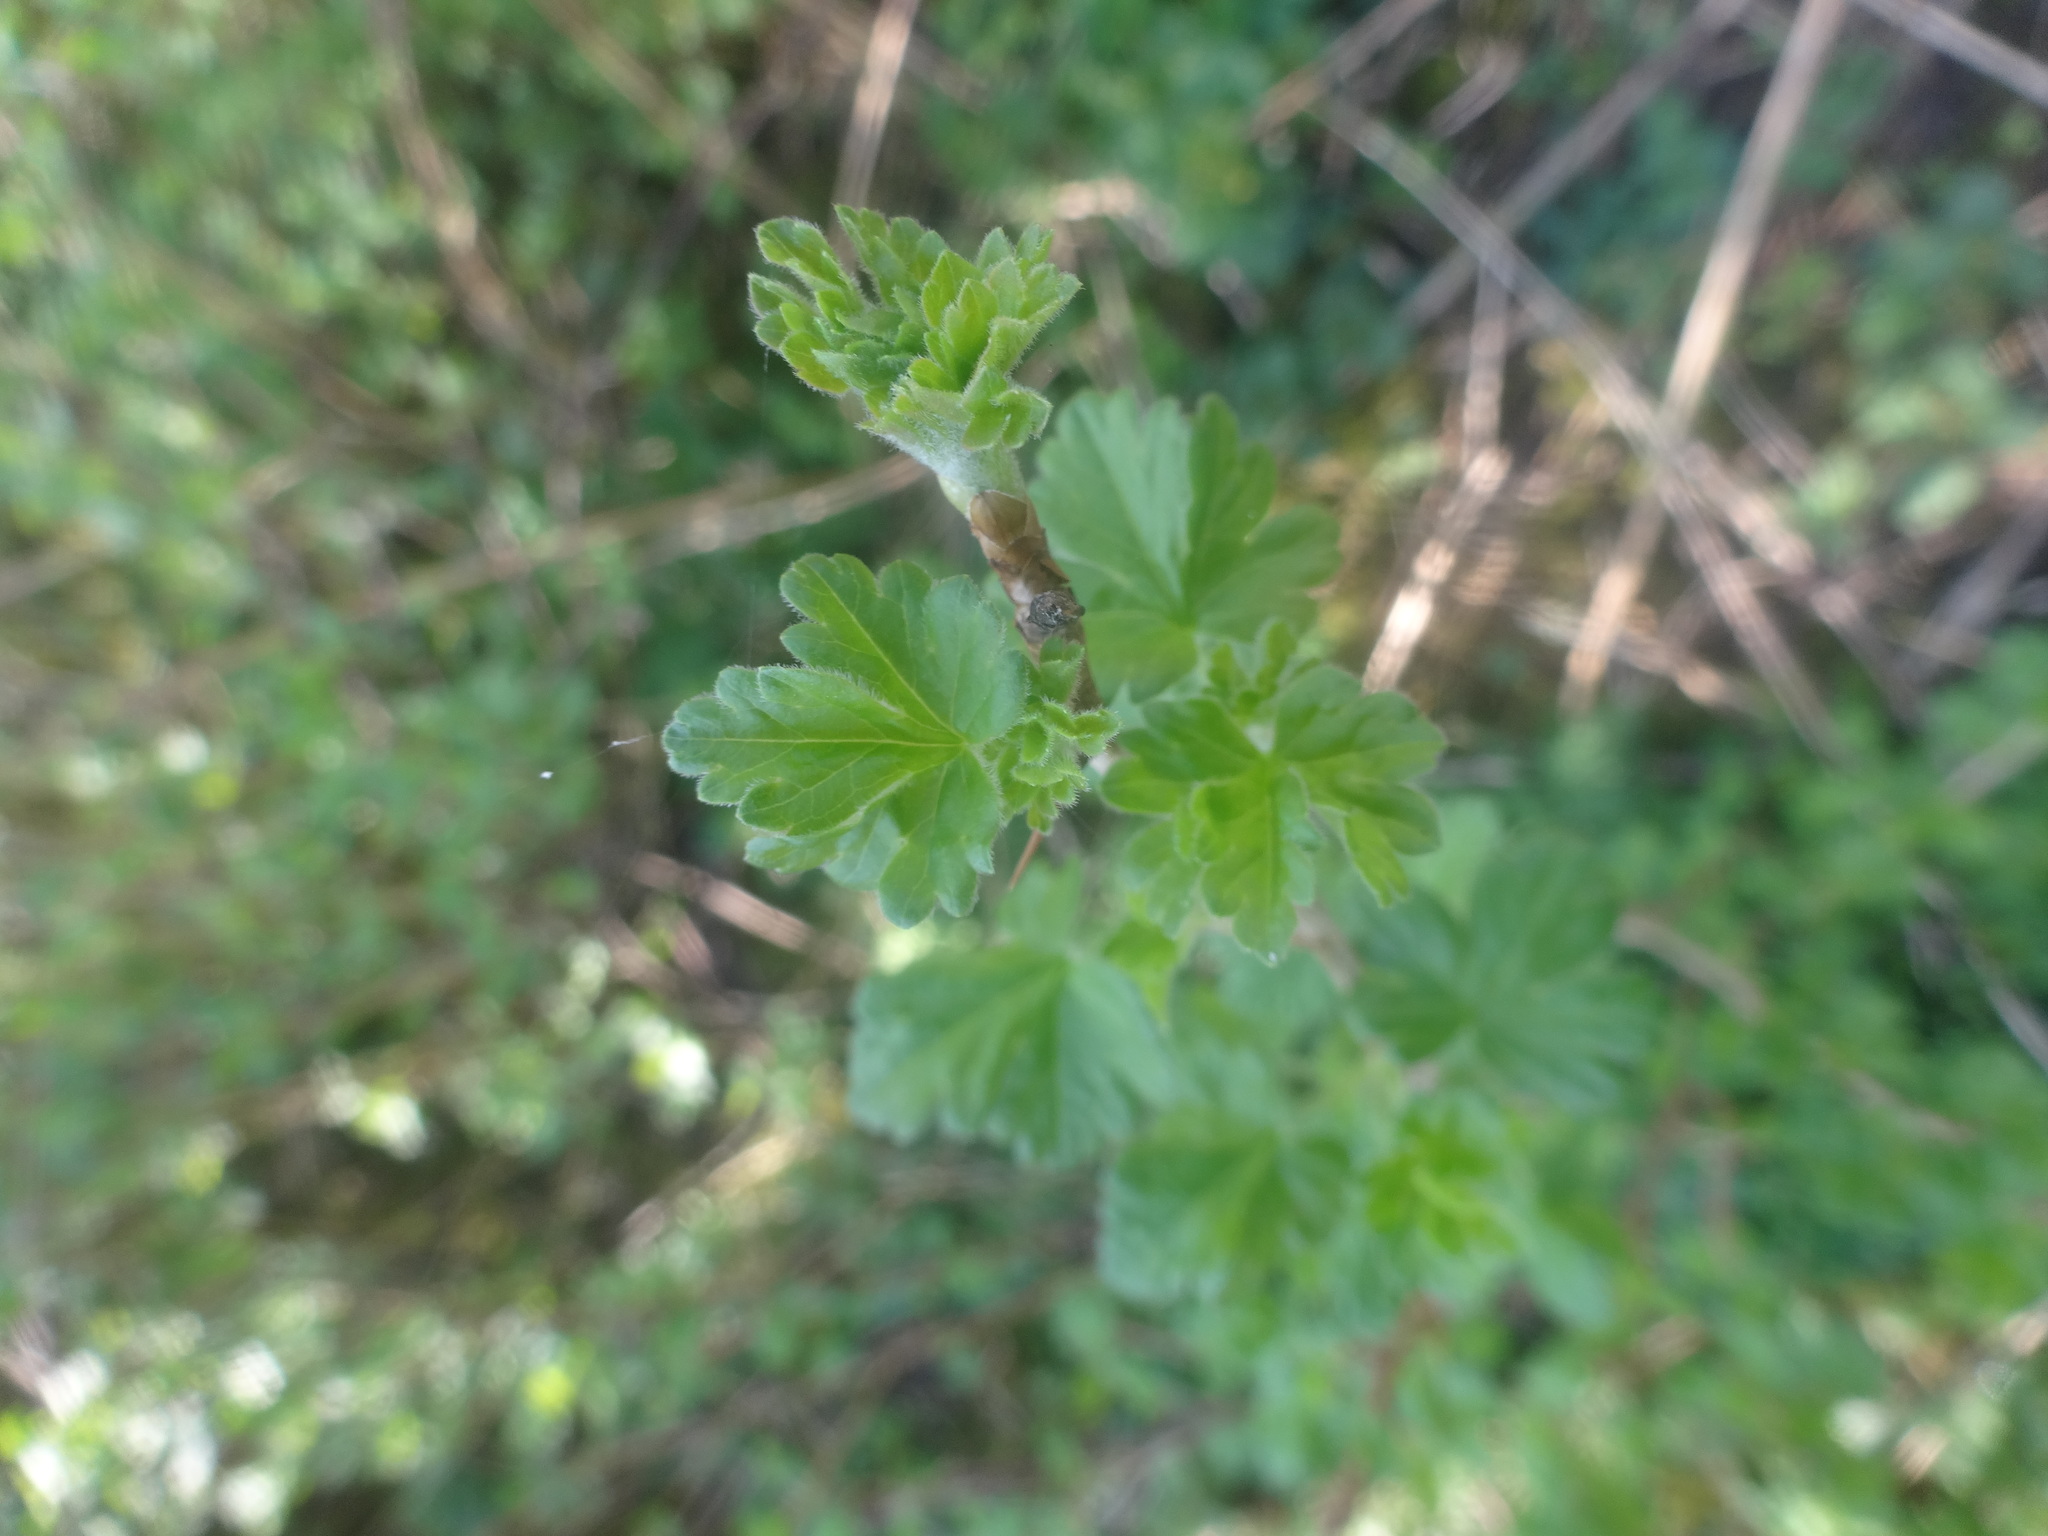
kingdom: Plantae
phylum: Tracheophyta
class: Magnoliopsida
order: Saxifragales
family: Grossulariaceae
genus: Ribes
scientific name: Ribes uva-crispa
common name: Gooseberry
